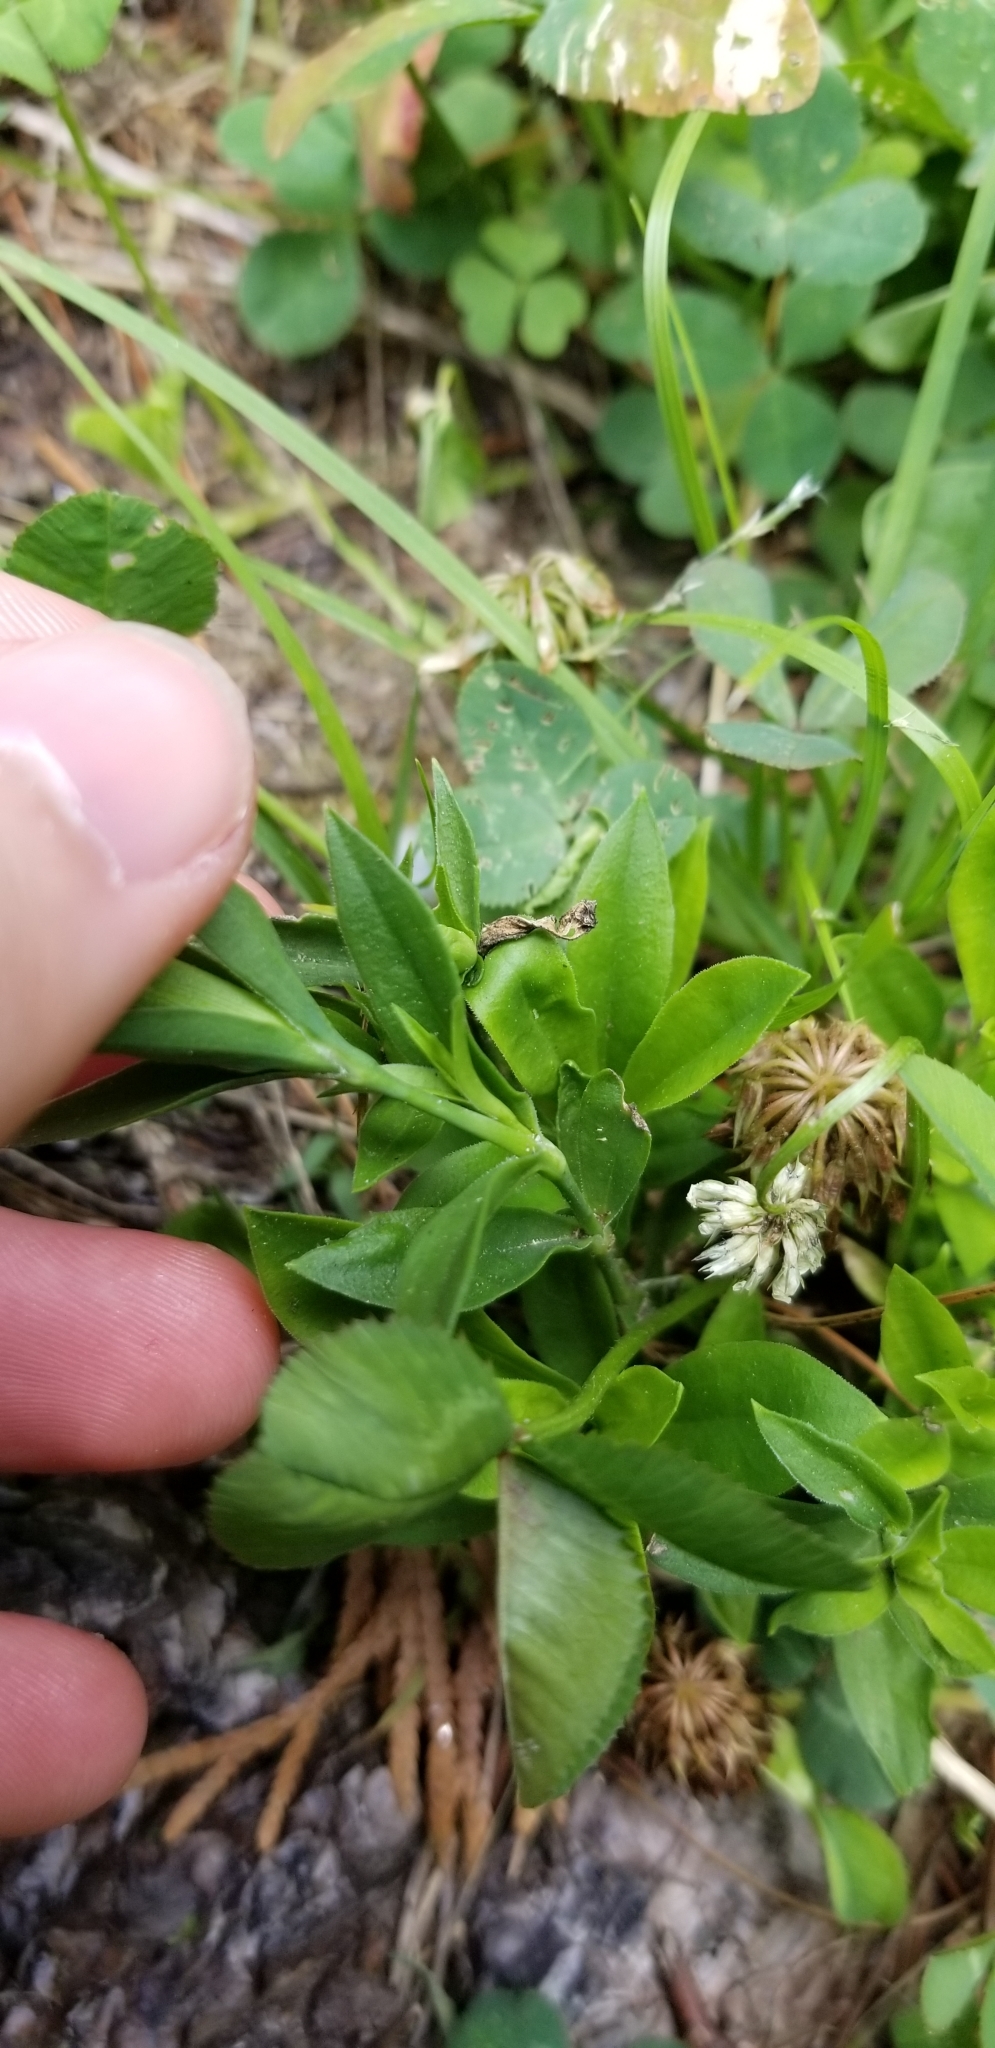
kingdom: Plantae
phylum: Tracheophyta
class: Magnoliopsida
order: Caryophyllales
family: Caryophyllaceae
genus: Dianthus
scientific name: Dianthus barbatus
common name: Sweet-william
